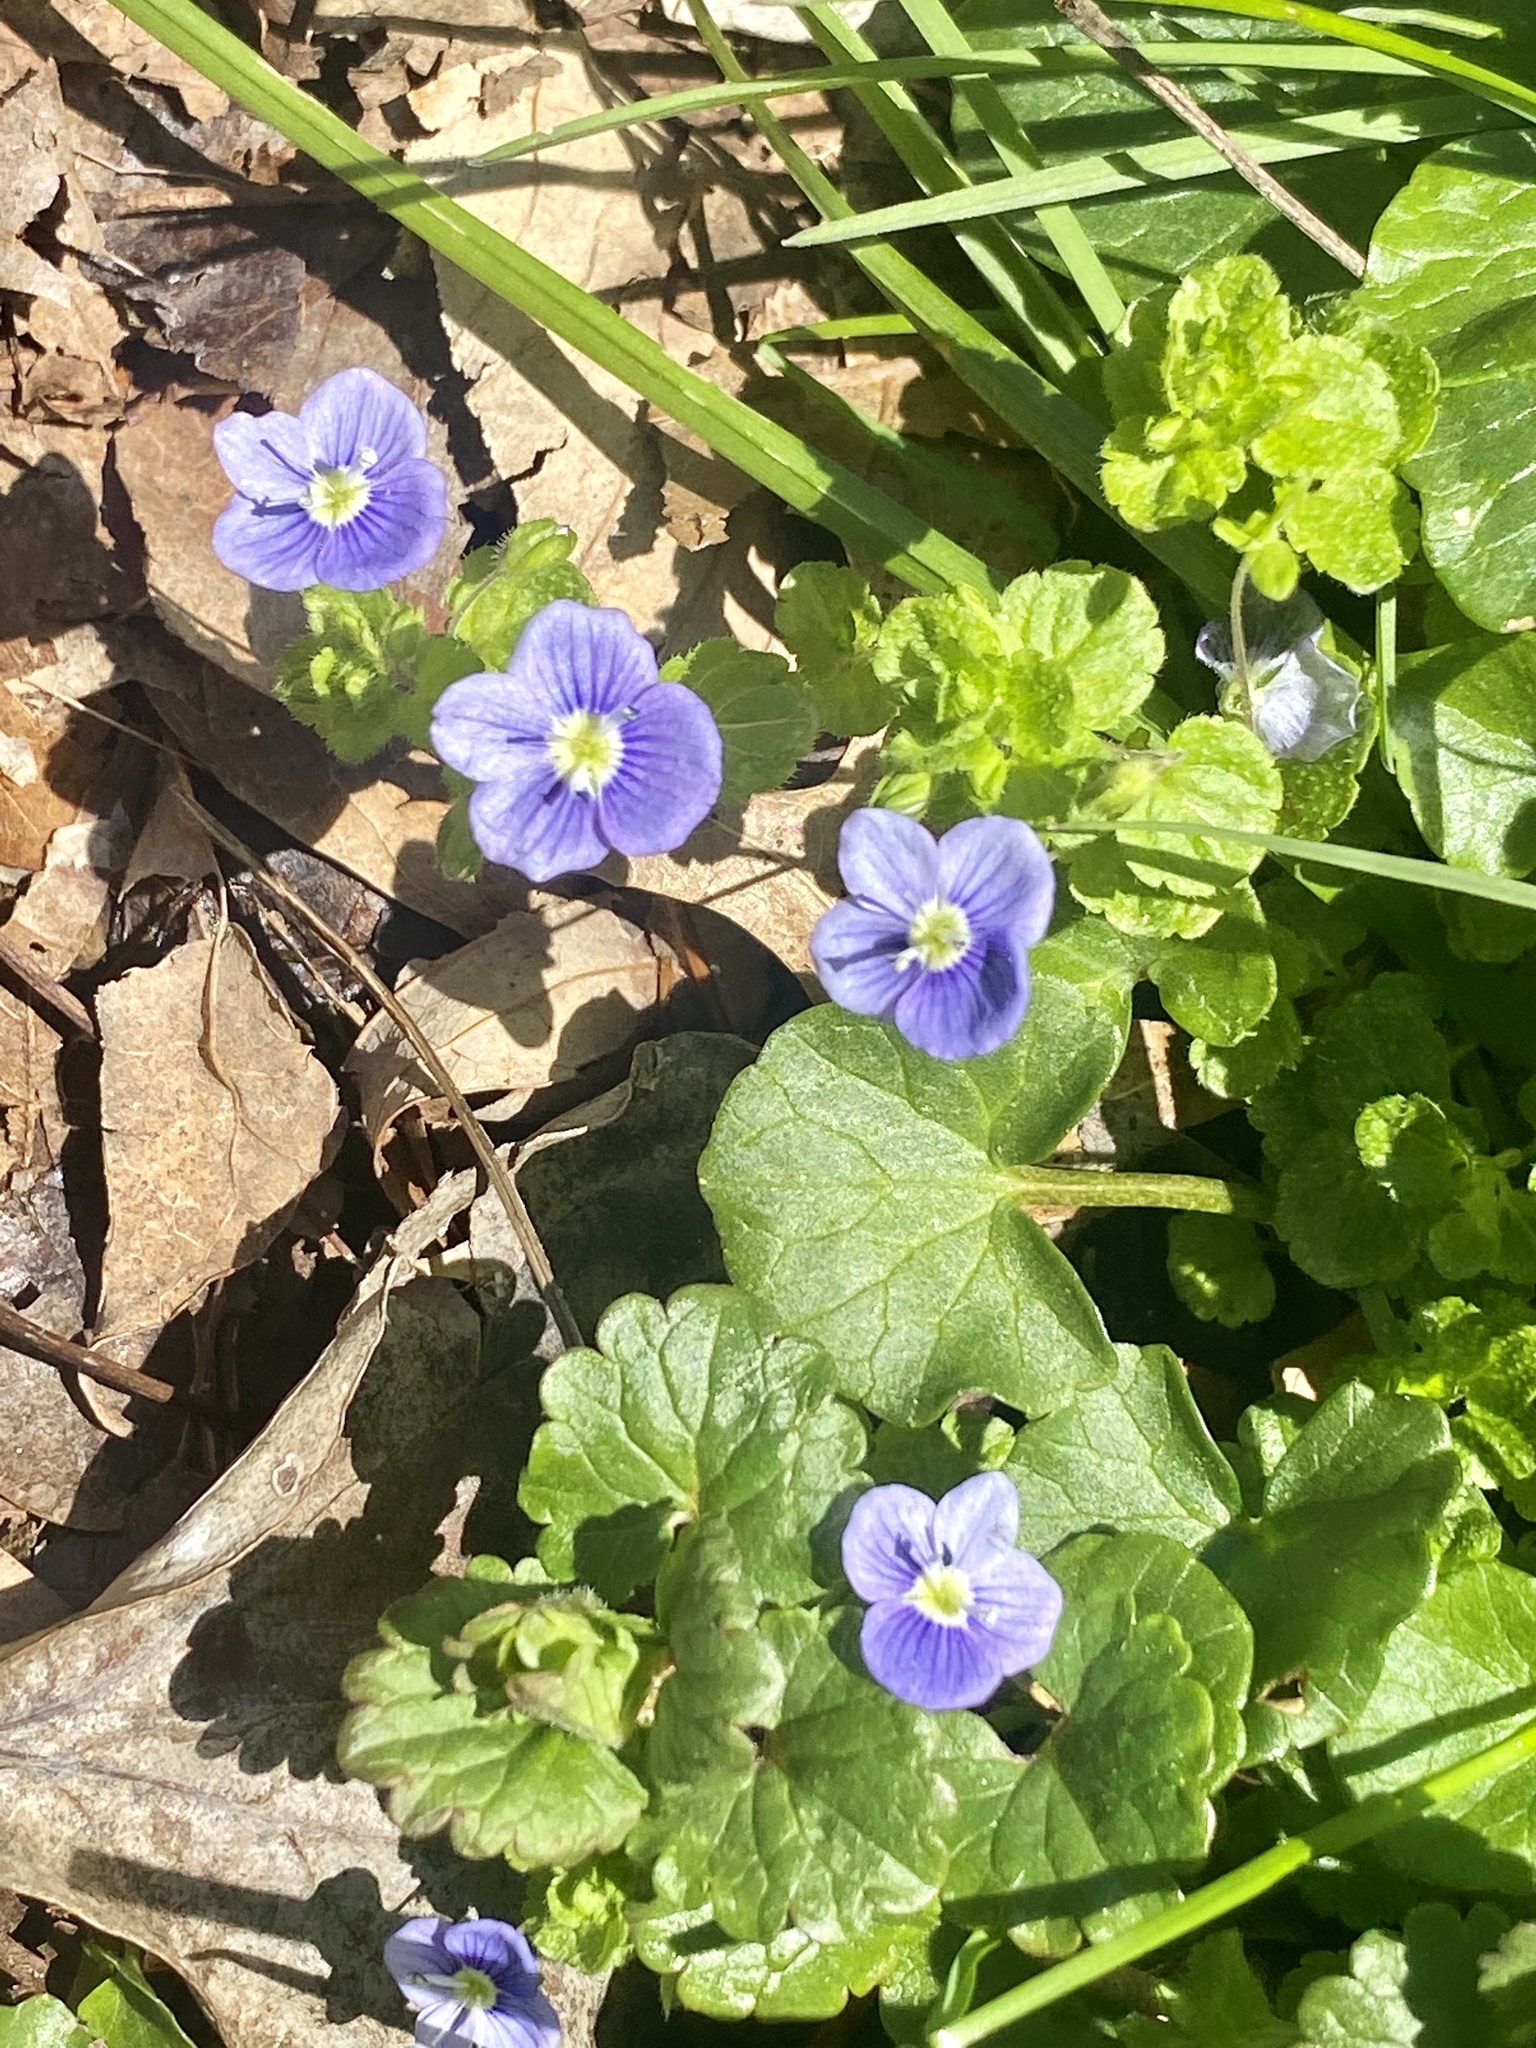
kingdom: Plantae
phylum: Tracheophyta
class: Magnoliopsida
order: Lamiales
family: Plantaginaceae
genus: Veronica
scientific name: Veronica filiformis
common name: Slender speedwell
